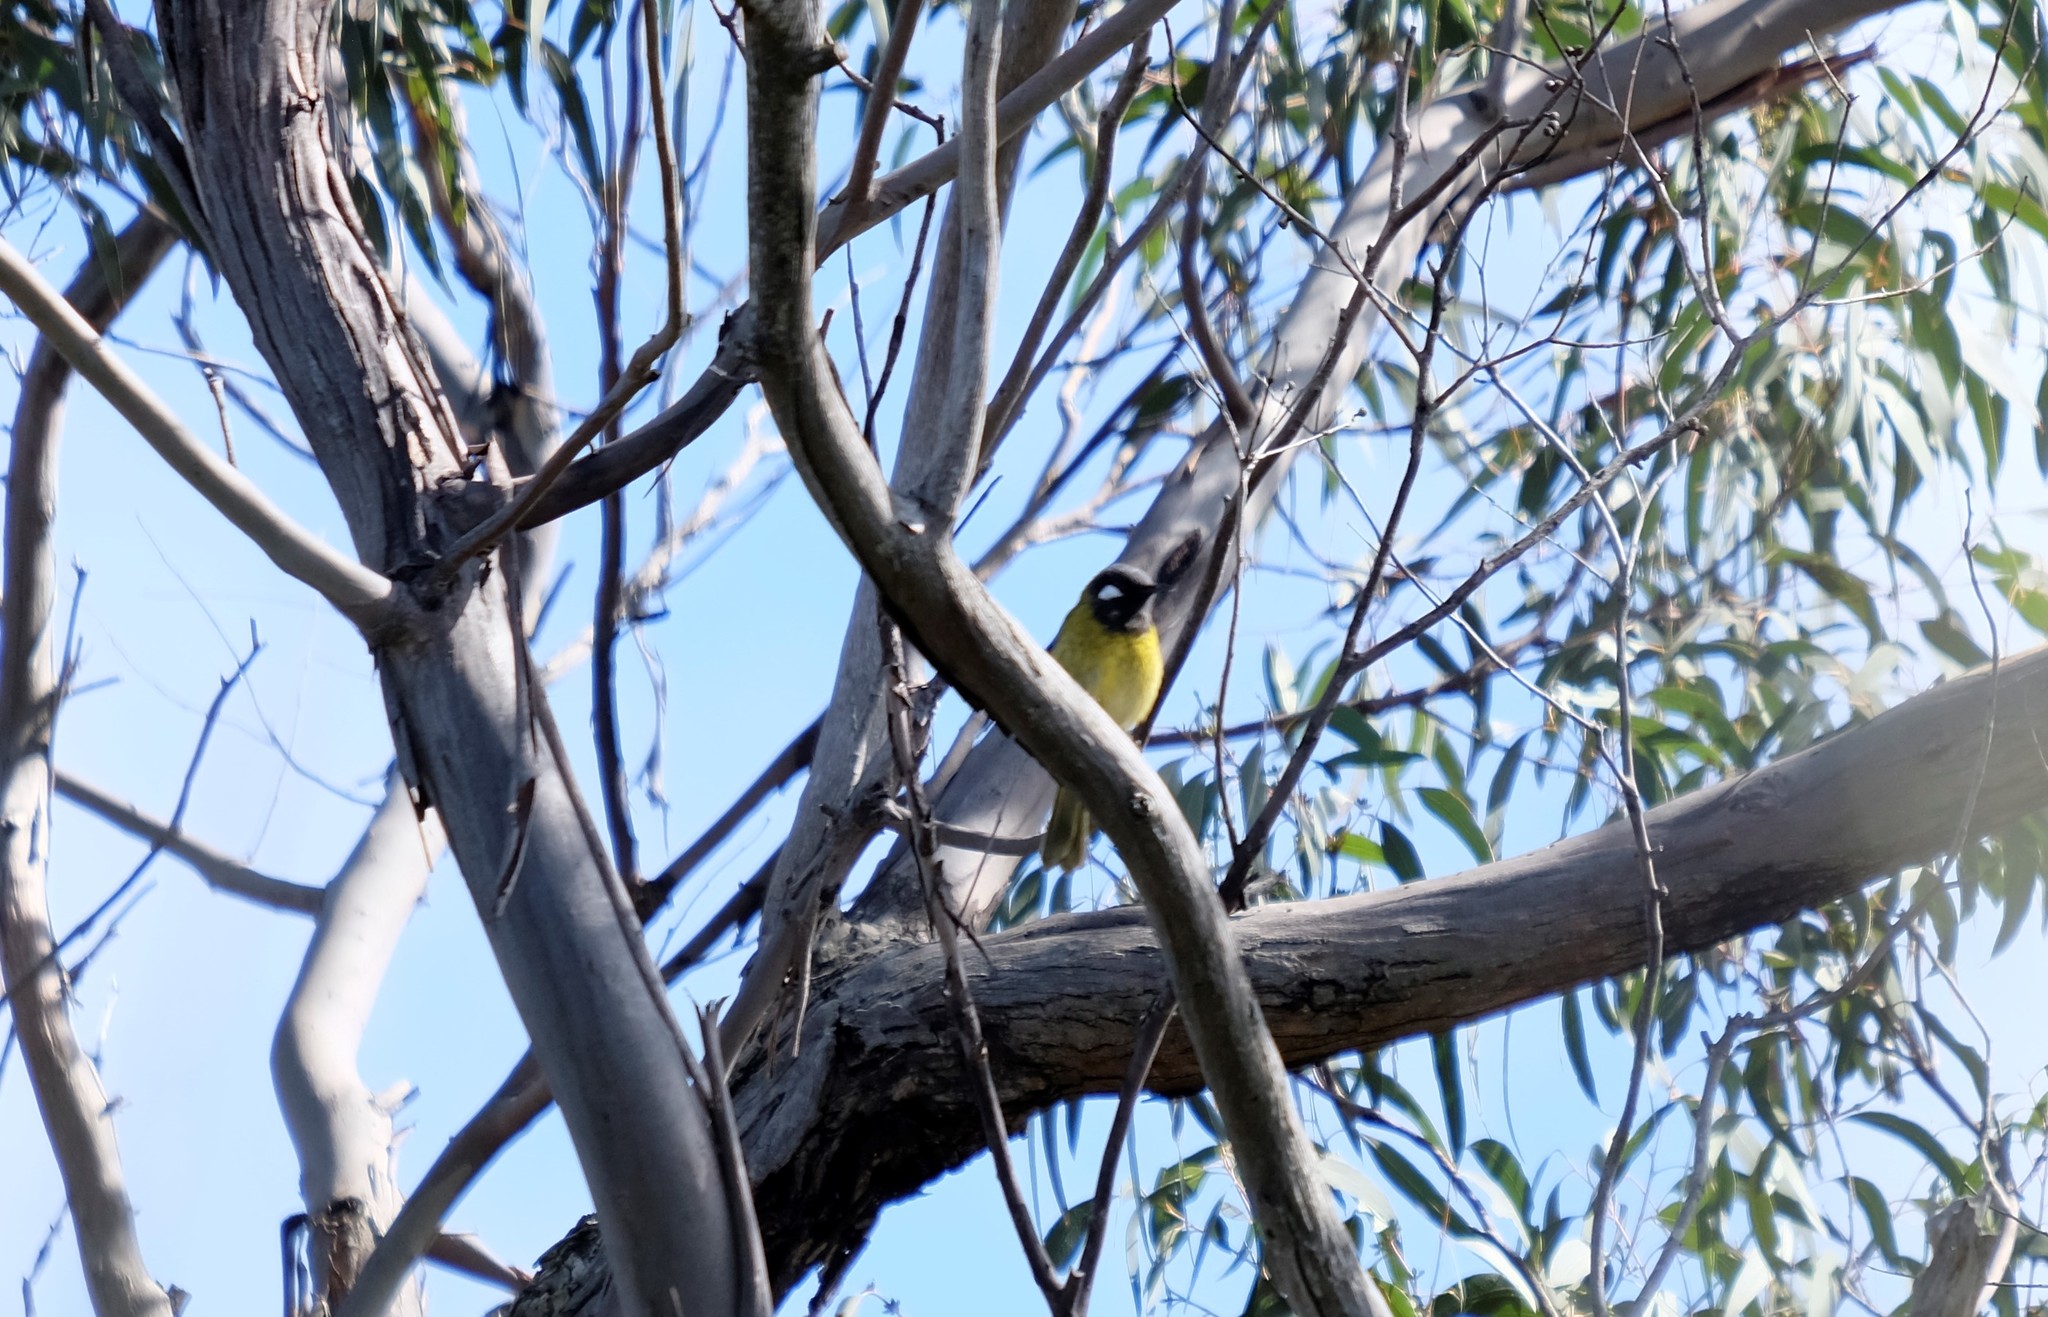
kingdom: Animalia
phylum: Chordata
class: Aves
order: Passeriformes
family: Meliphagidae
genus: Nesoptilotis
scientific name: Nesoptilotis leucotis
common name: White-eared honeyeater
